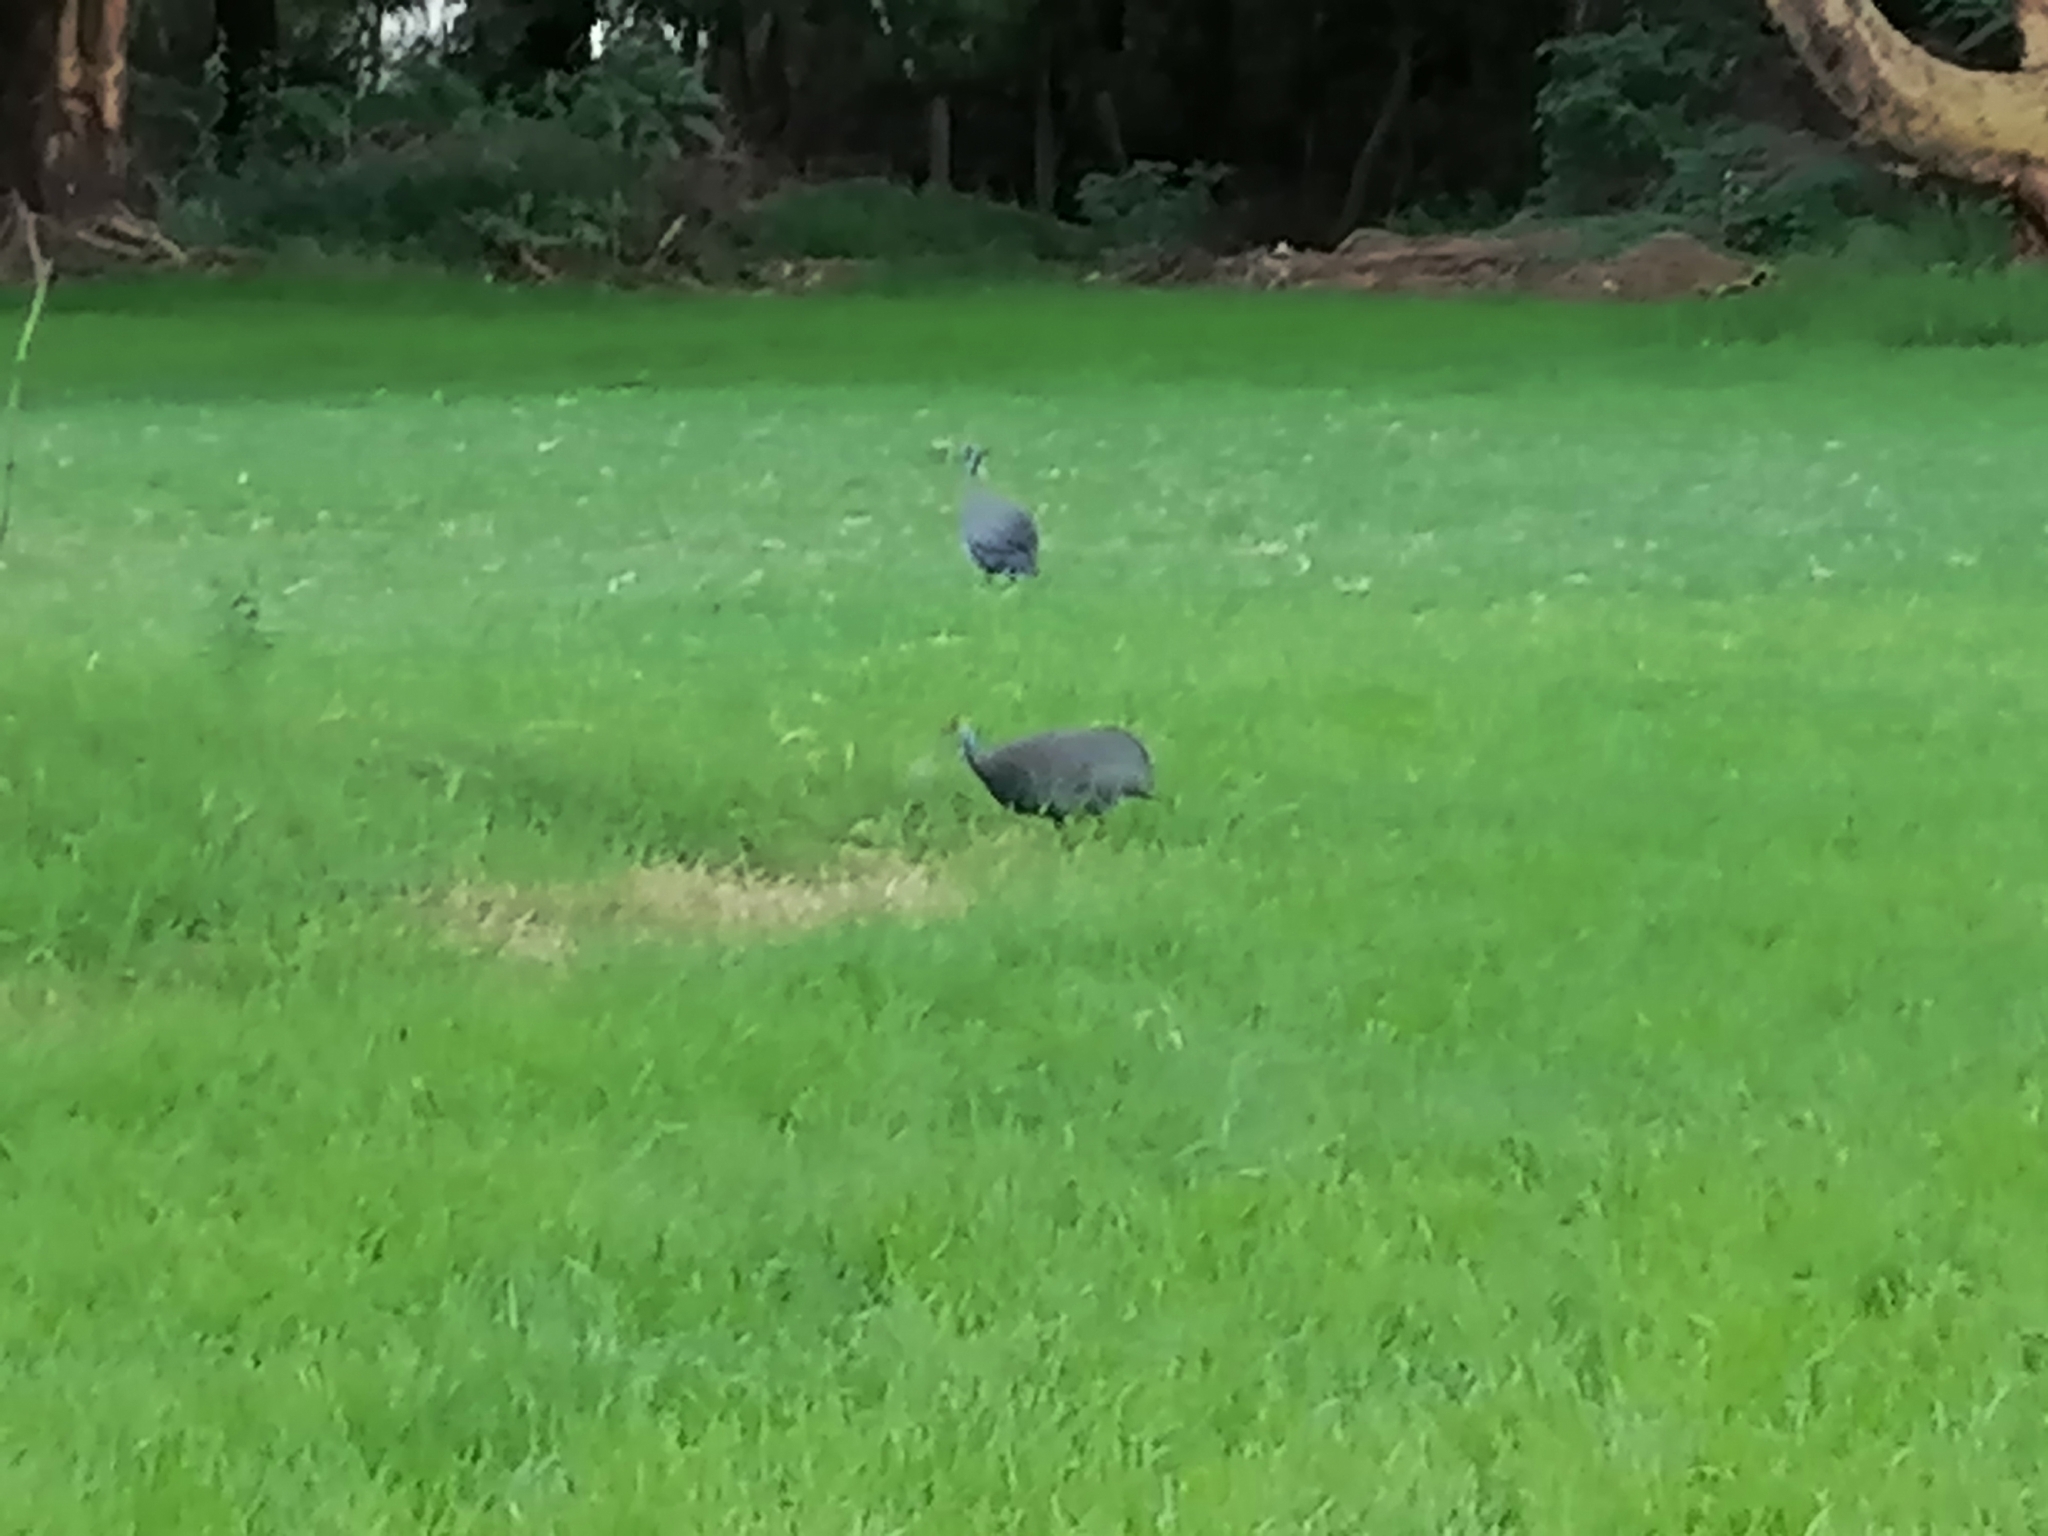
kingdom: Animalia
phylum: Chordata
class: Aves
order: Galliformes
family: Numididae
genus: Numida
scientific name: Numida meleagris
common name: Helmeted guineafowl
